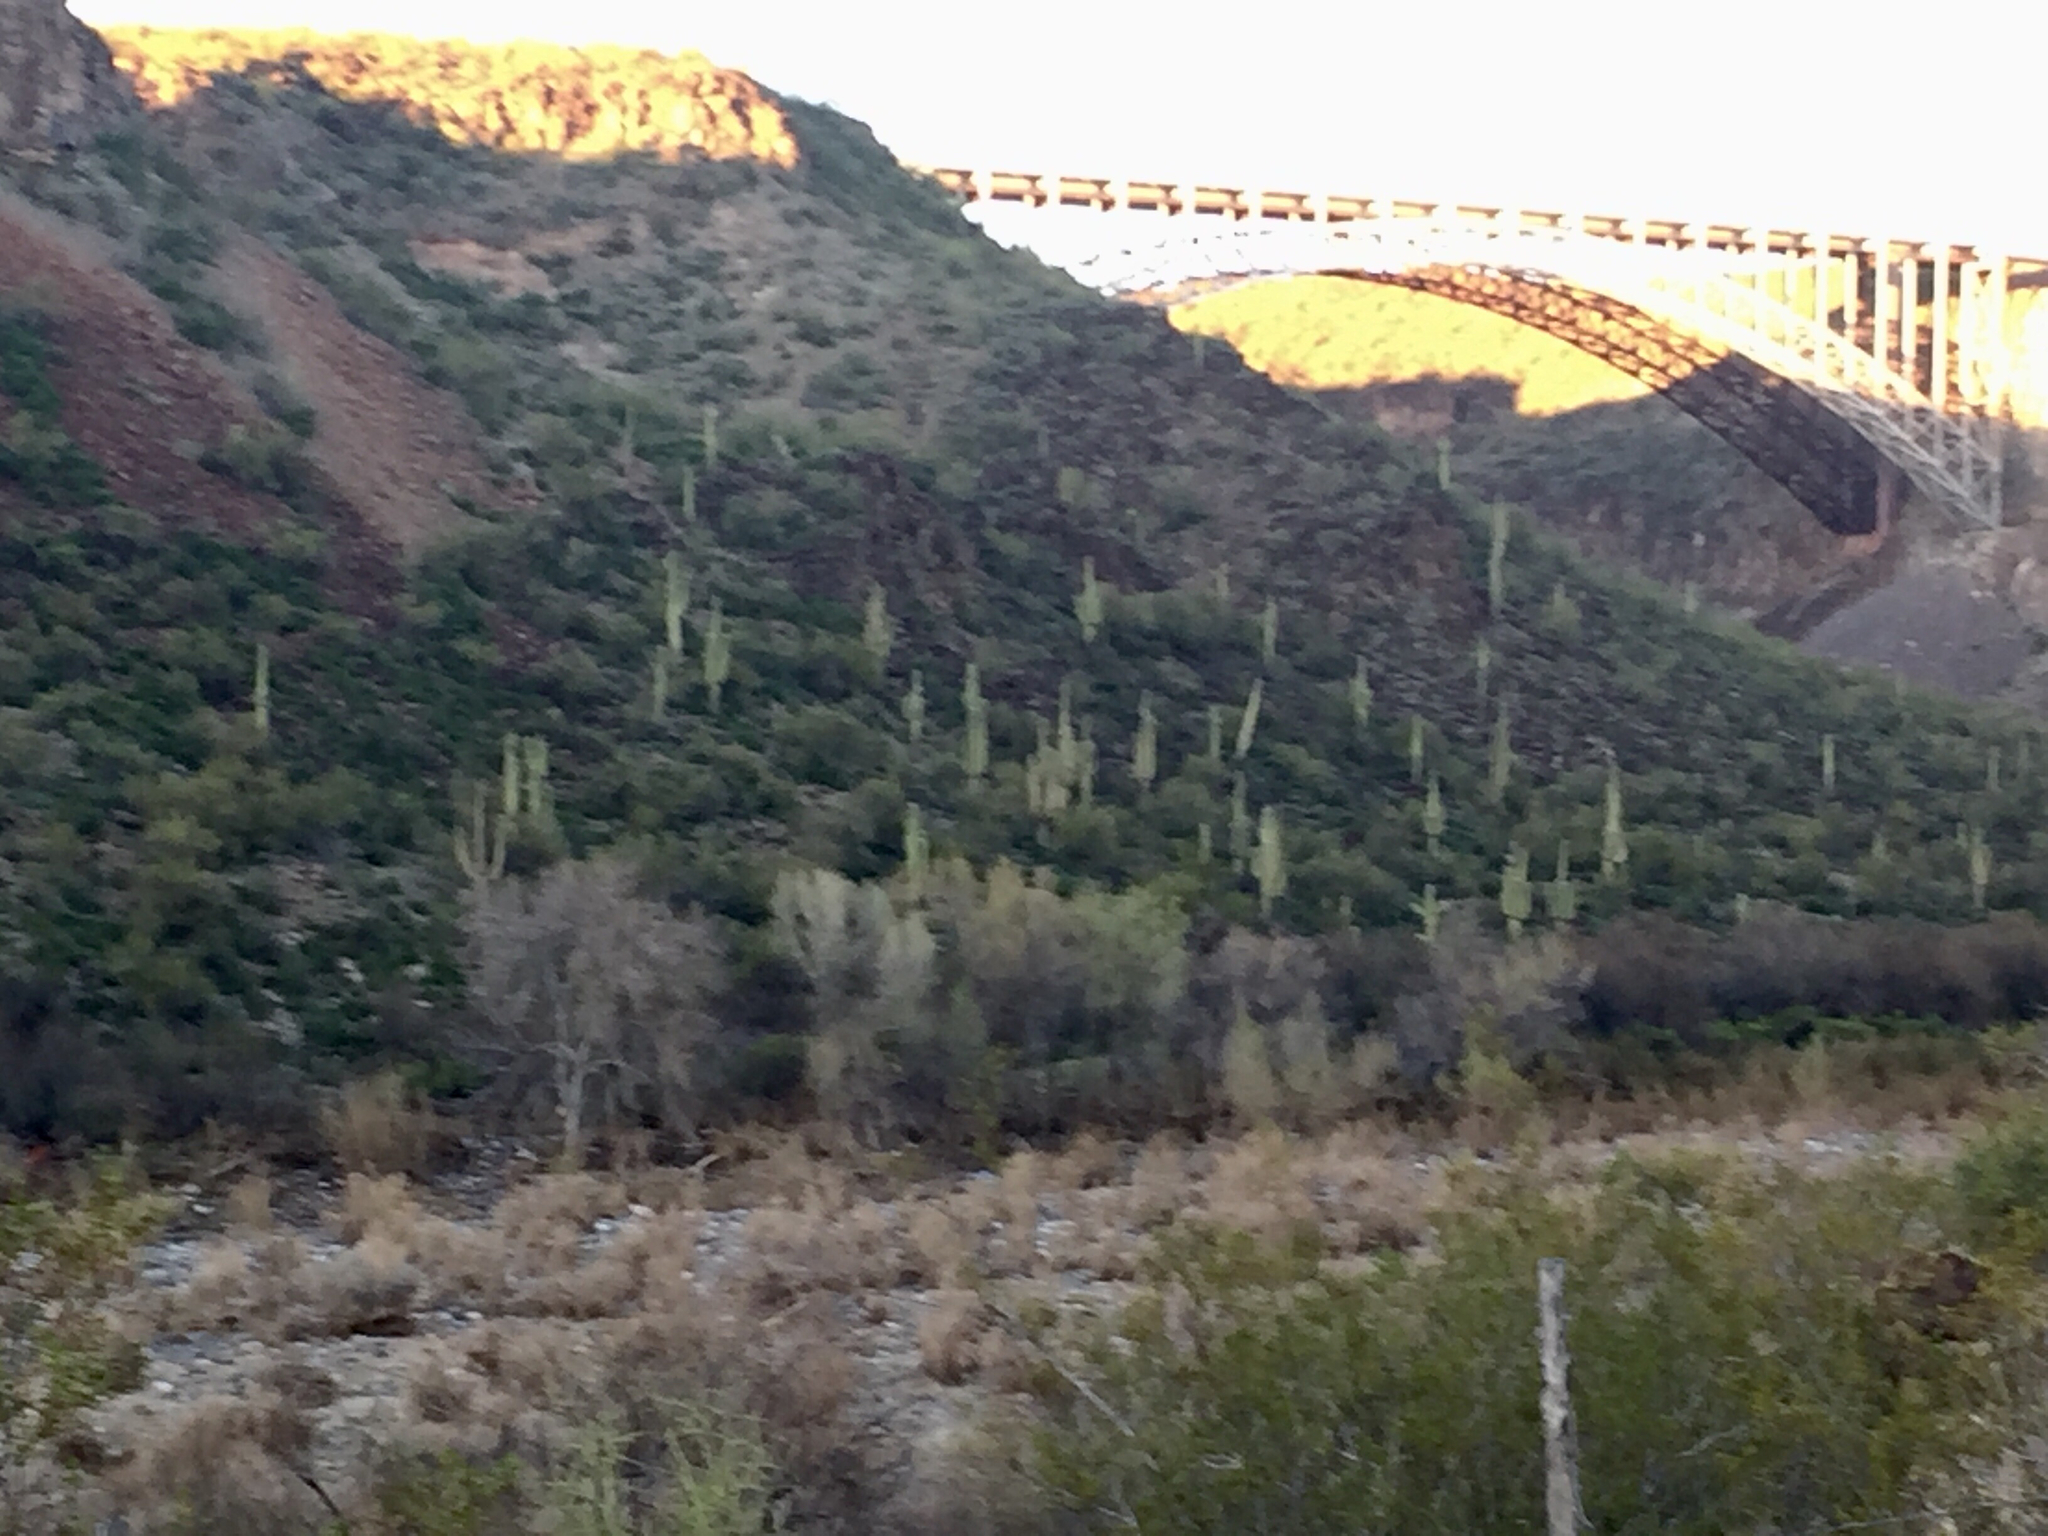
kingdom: Plantae
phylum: Tracheophyta
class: Magnoliopsida
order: Caryophyllales
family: Cactaceae
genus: Carnegiea
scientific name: Carnegiea gigantea
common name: Saguaro
